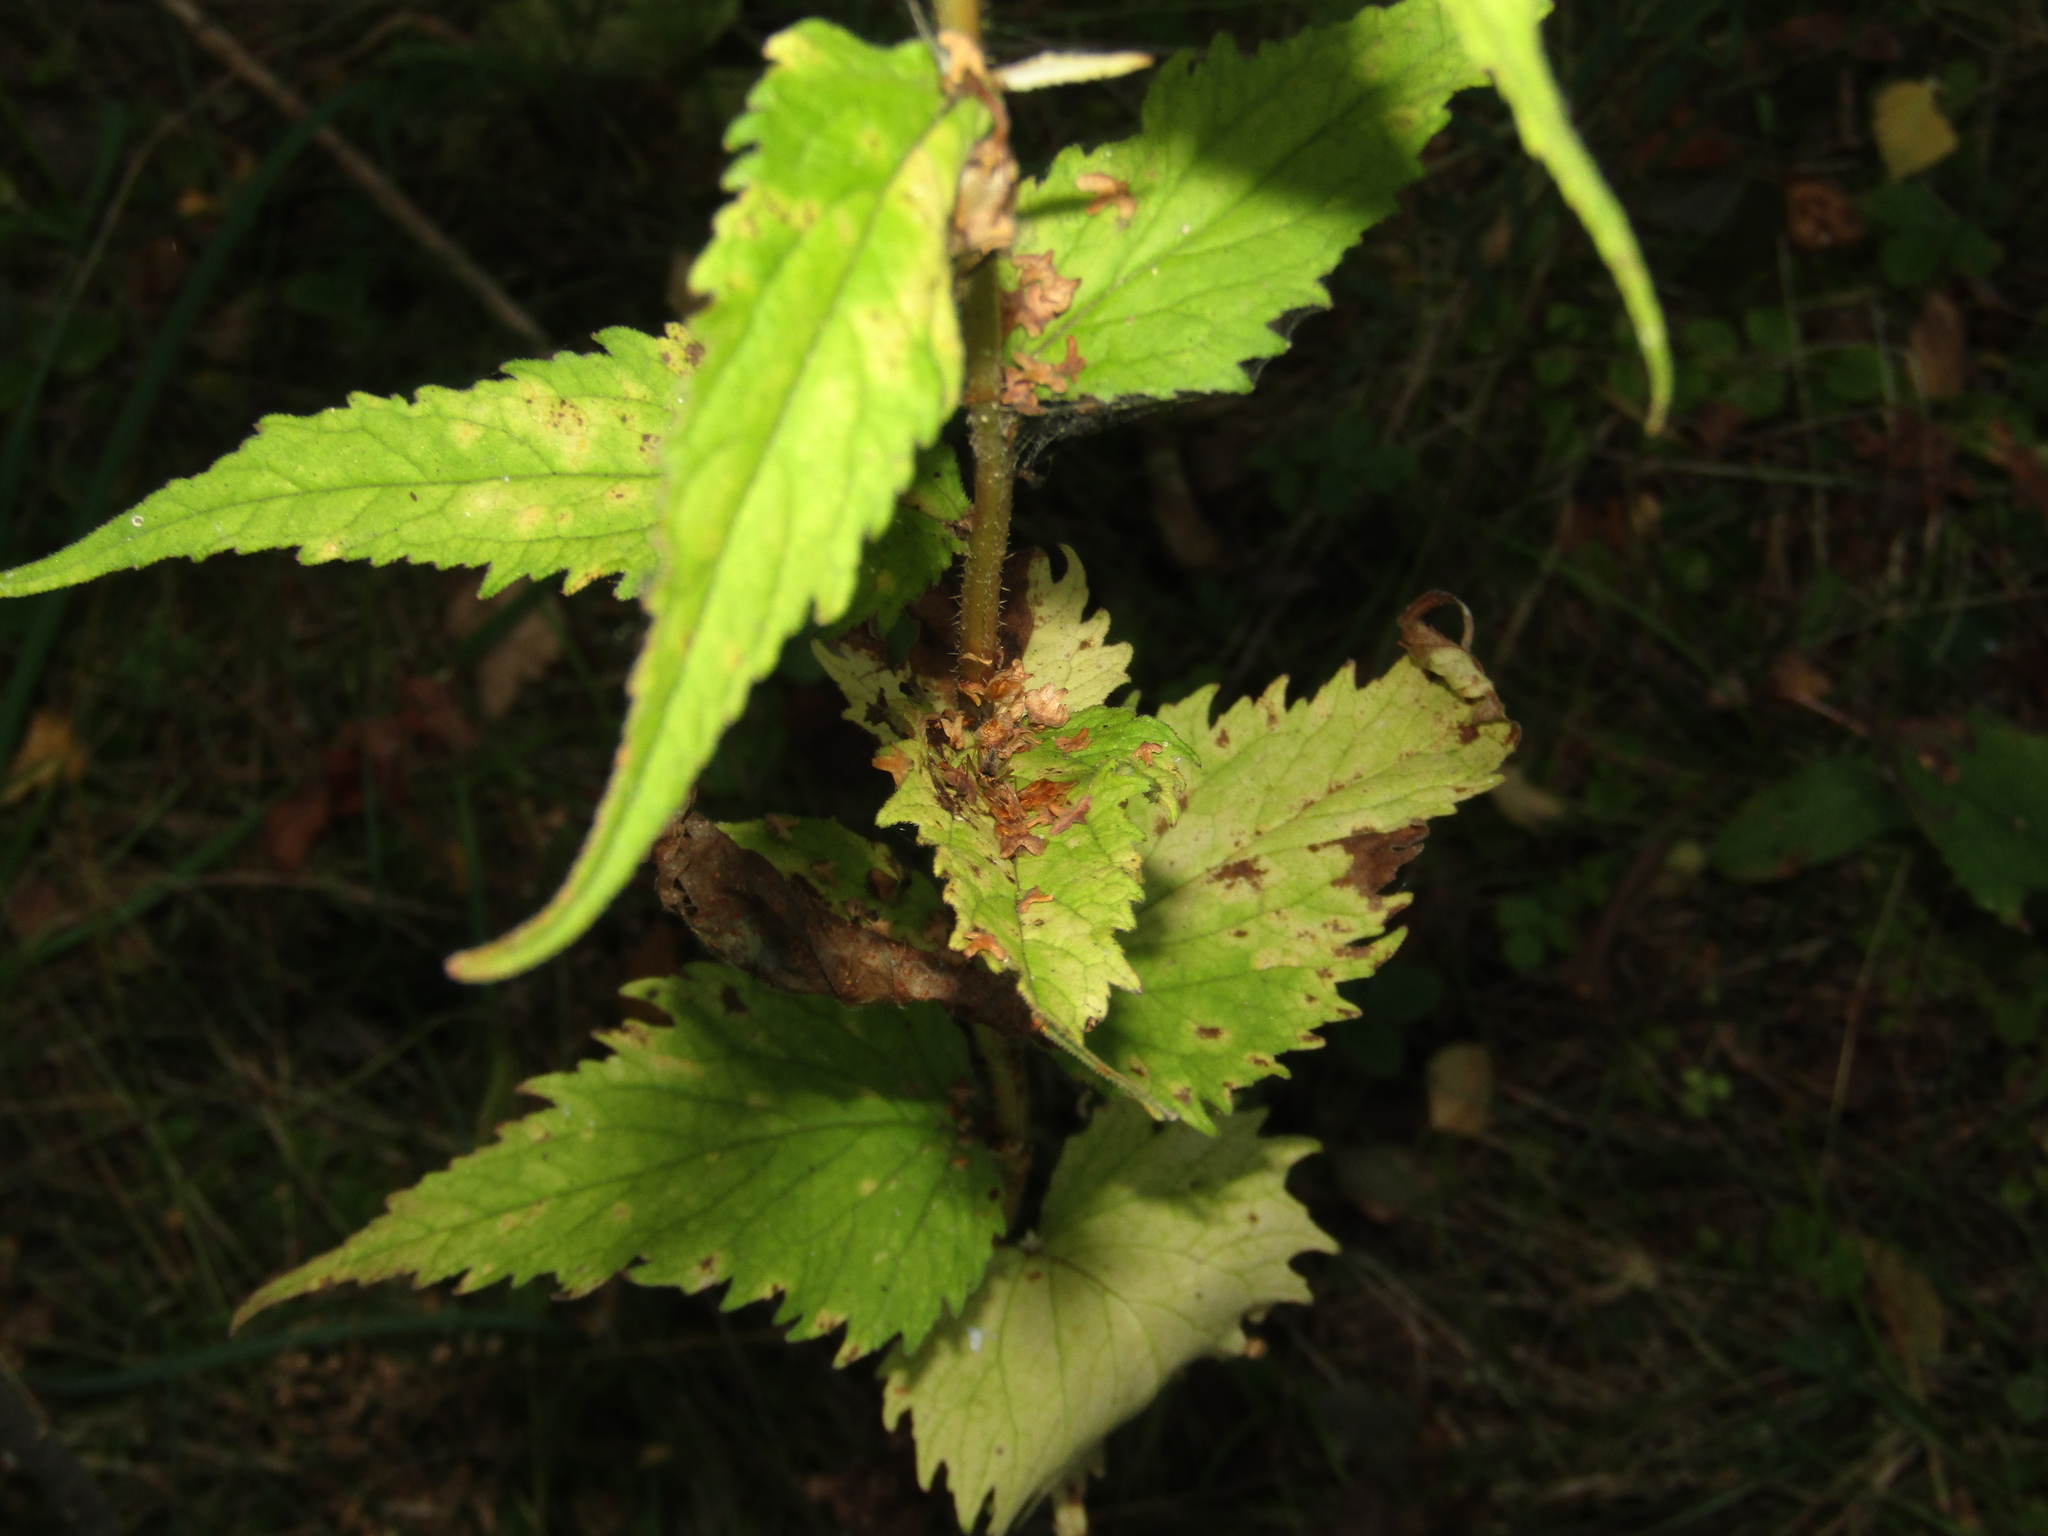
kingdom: Plantae
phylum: Tracheophyta
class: Magnoliopsida
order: Asterales
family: Campanulaceae
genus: Campanula
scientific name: Campanula trachelium
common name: Nettle-leaved bellflower
